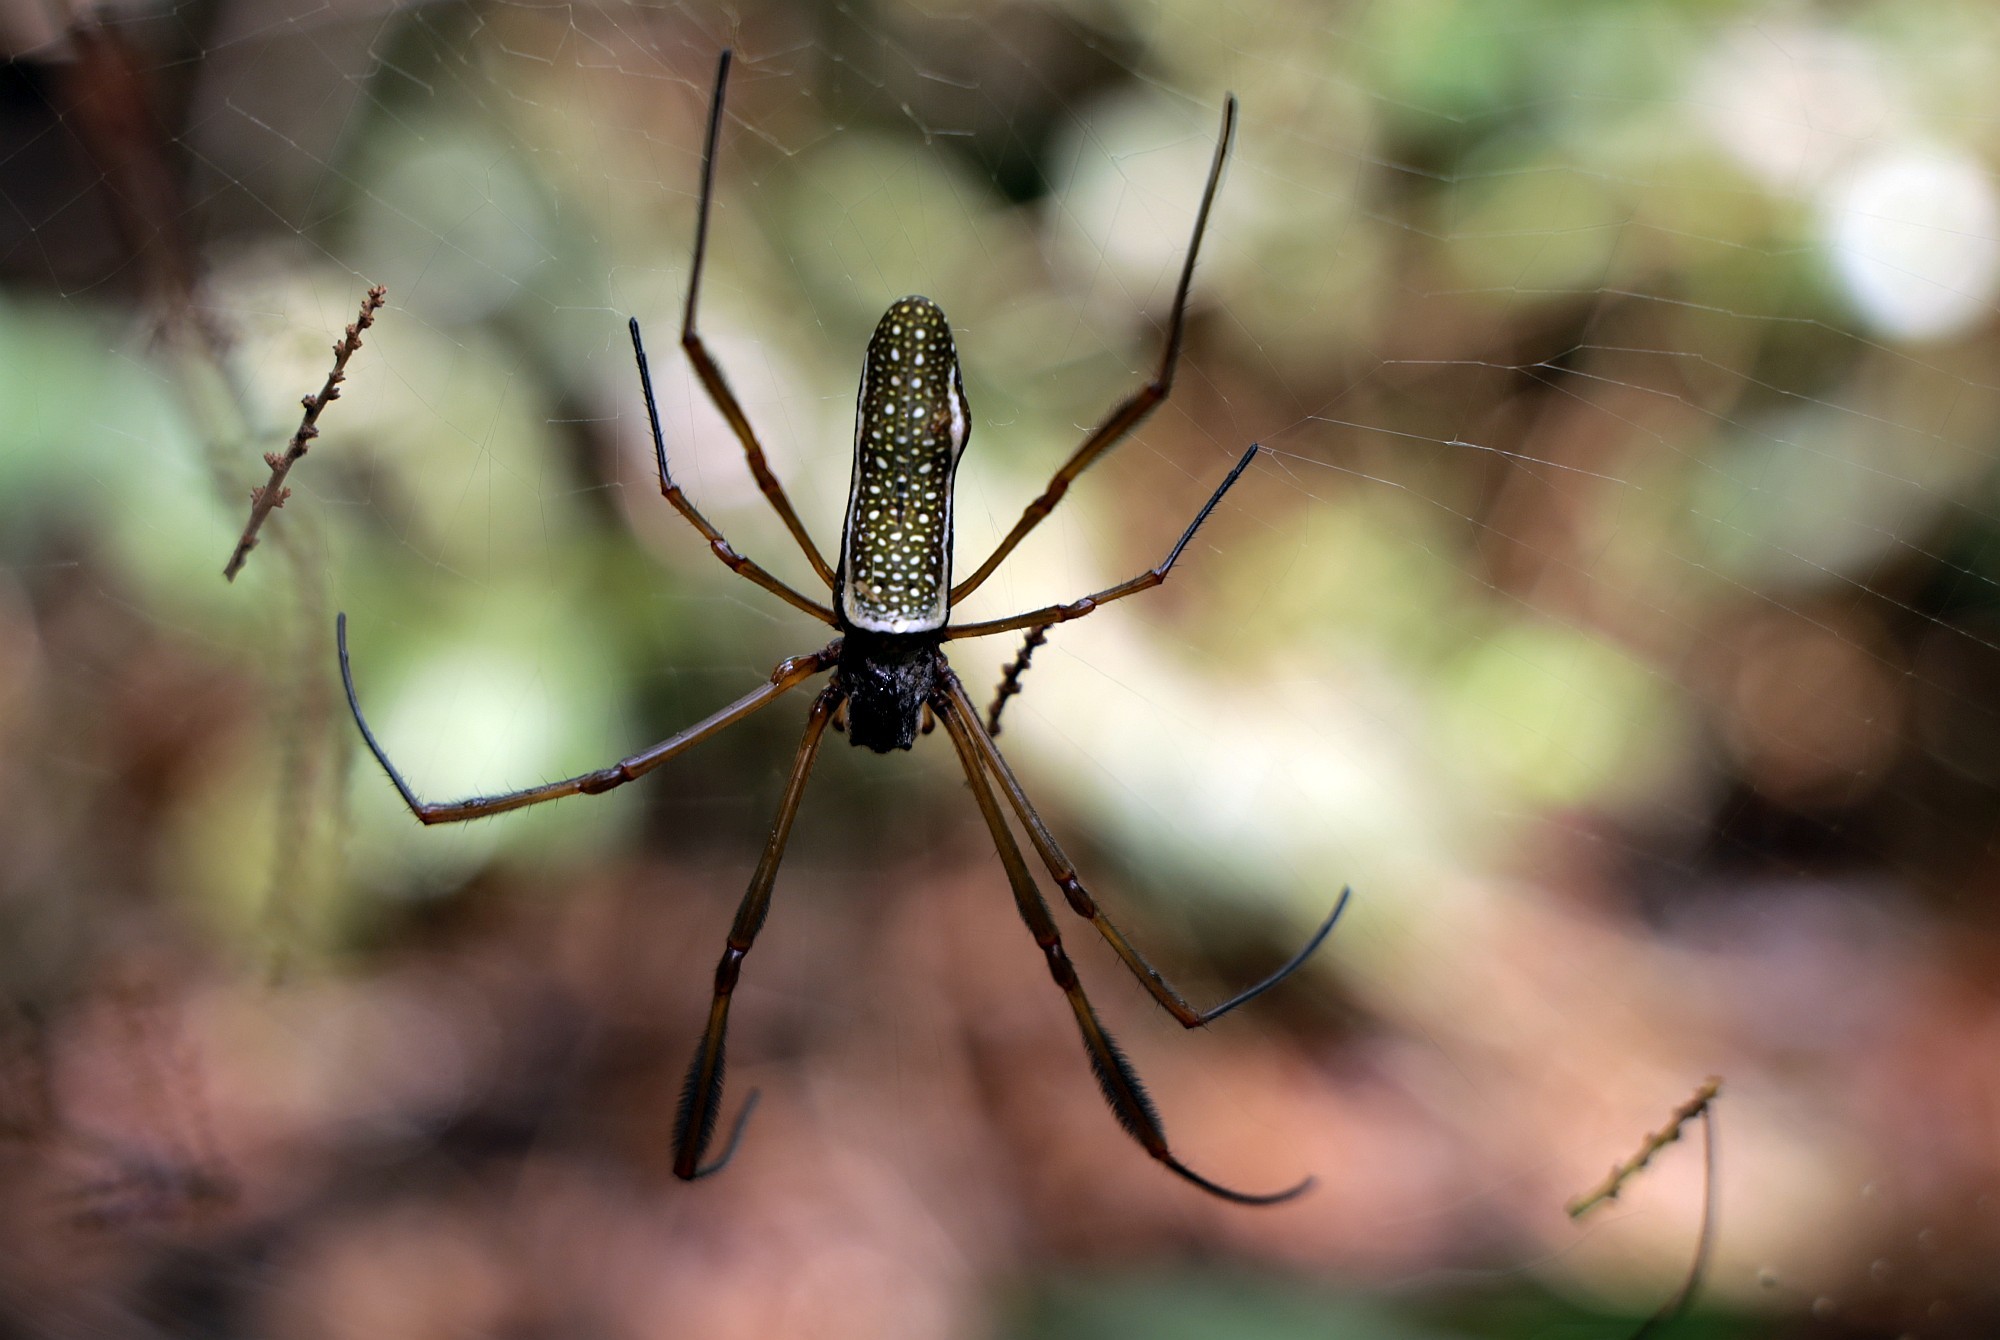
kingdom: Animalia
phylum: Arthropoda
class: Arachnida
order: Araneae
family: Araneidae
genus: Trichonephila
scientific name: Trichonephila clavipes
